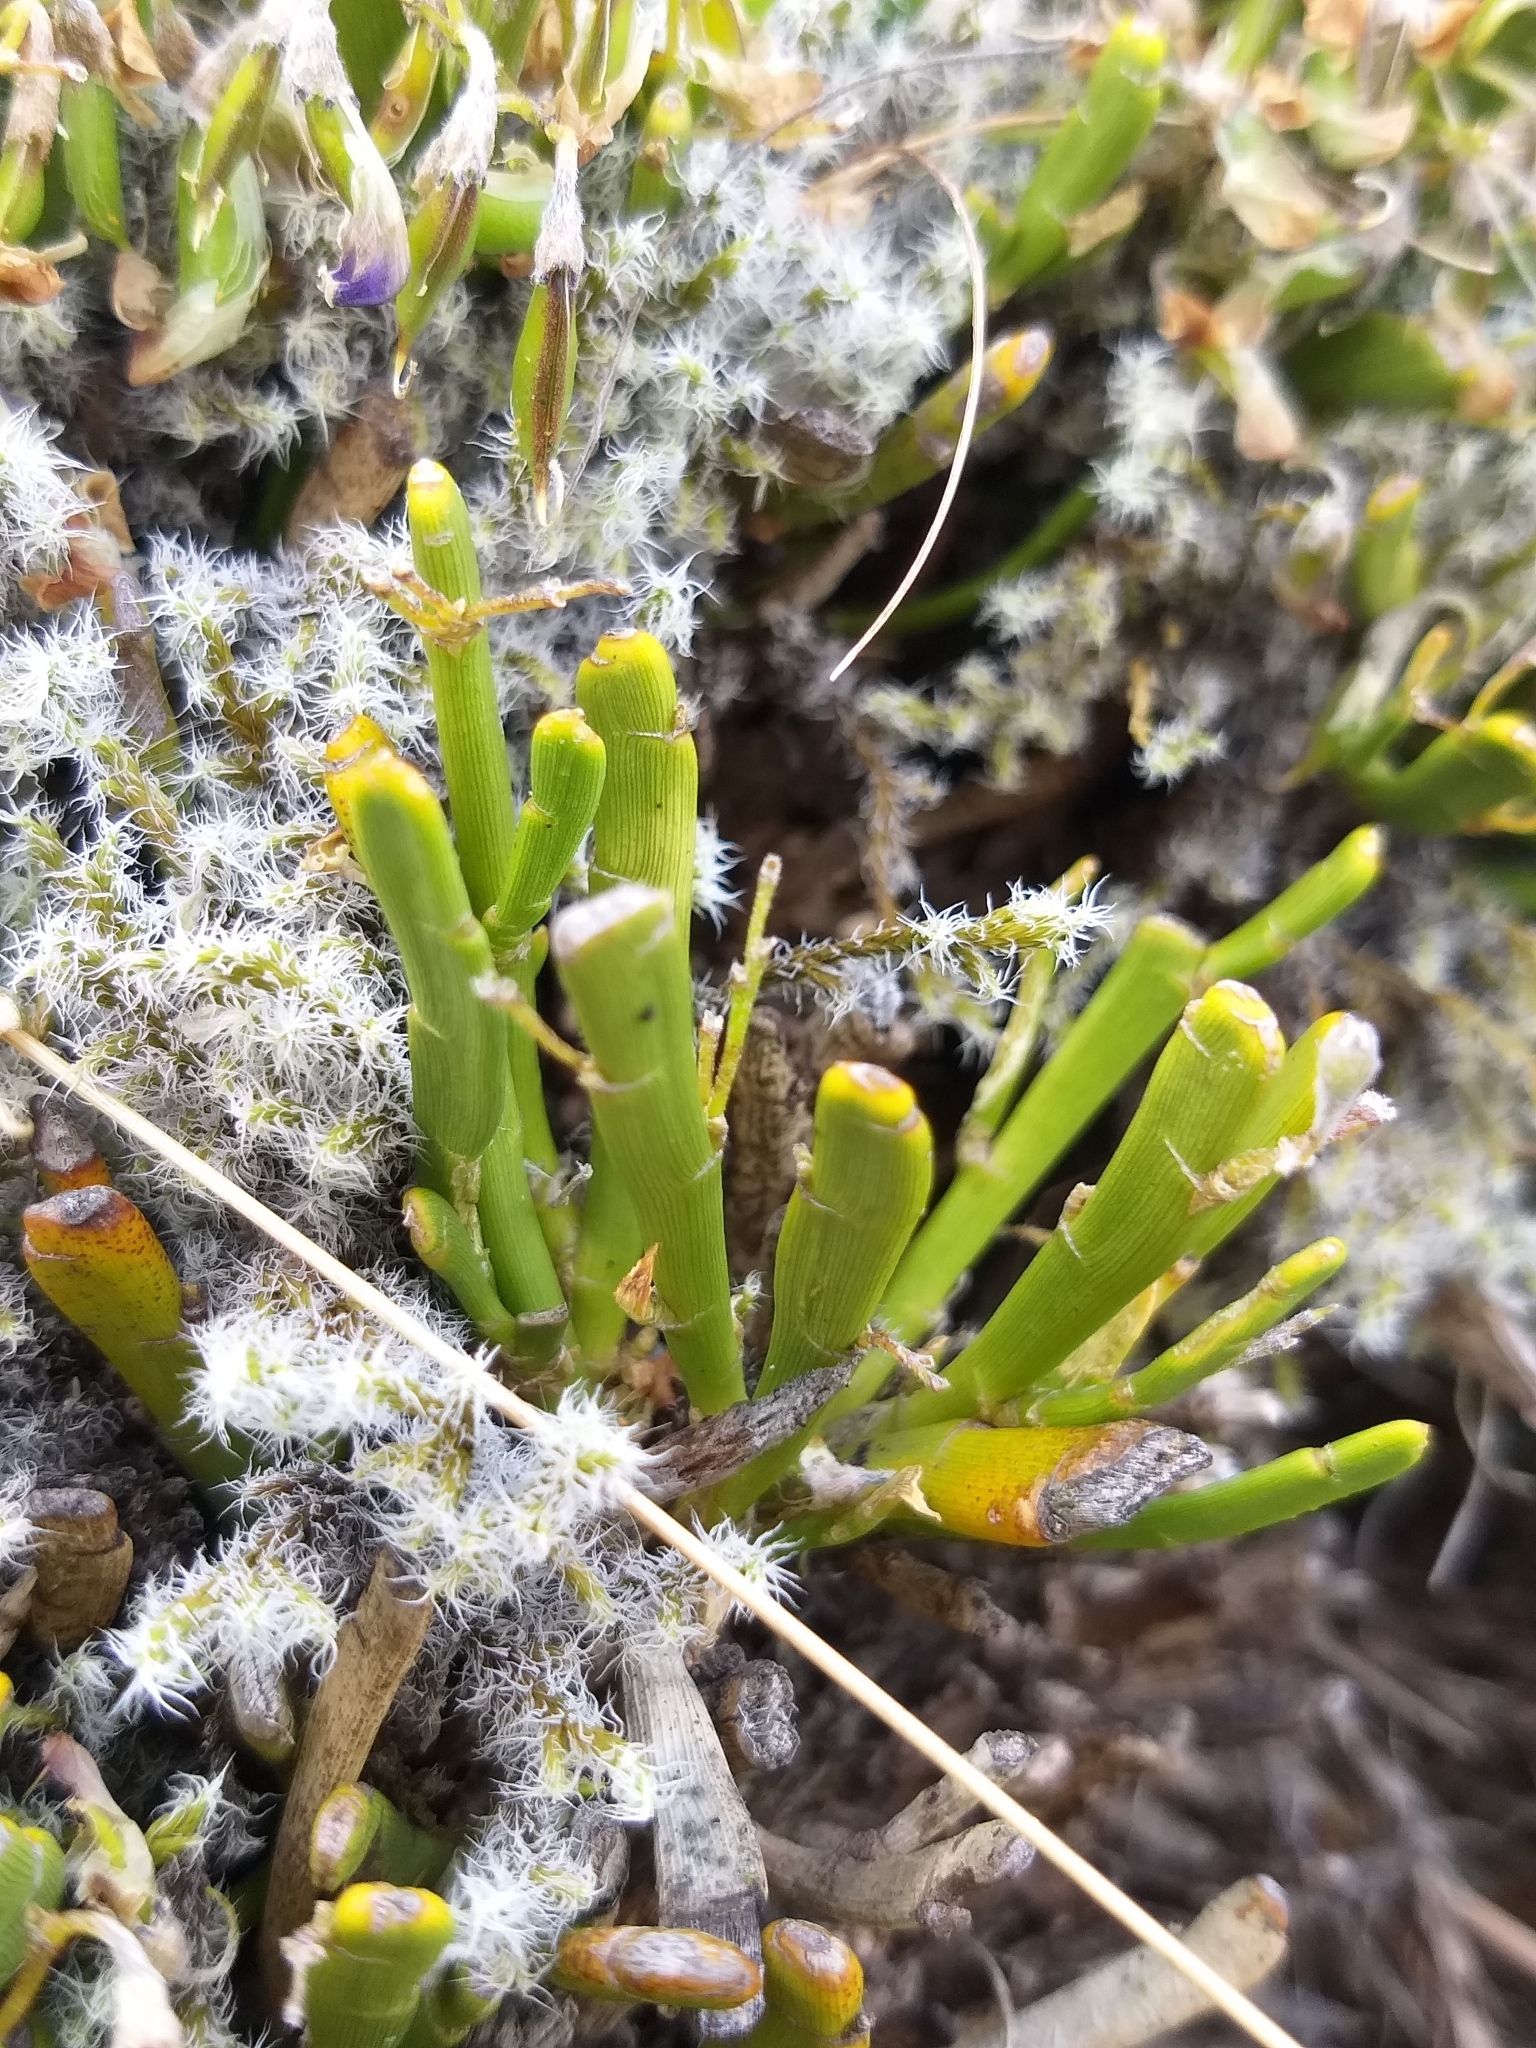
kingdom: Plantae
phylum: Tracheophyta
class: Magnoliopsida
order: Fabales
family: Fabaceae
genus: Carmichaelia
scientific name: Carmichaelia monroi
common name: Stout dwarf broom
